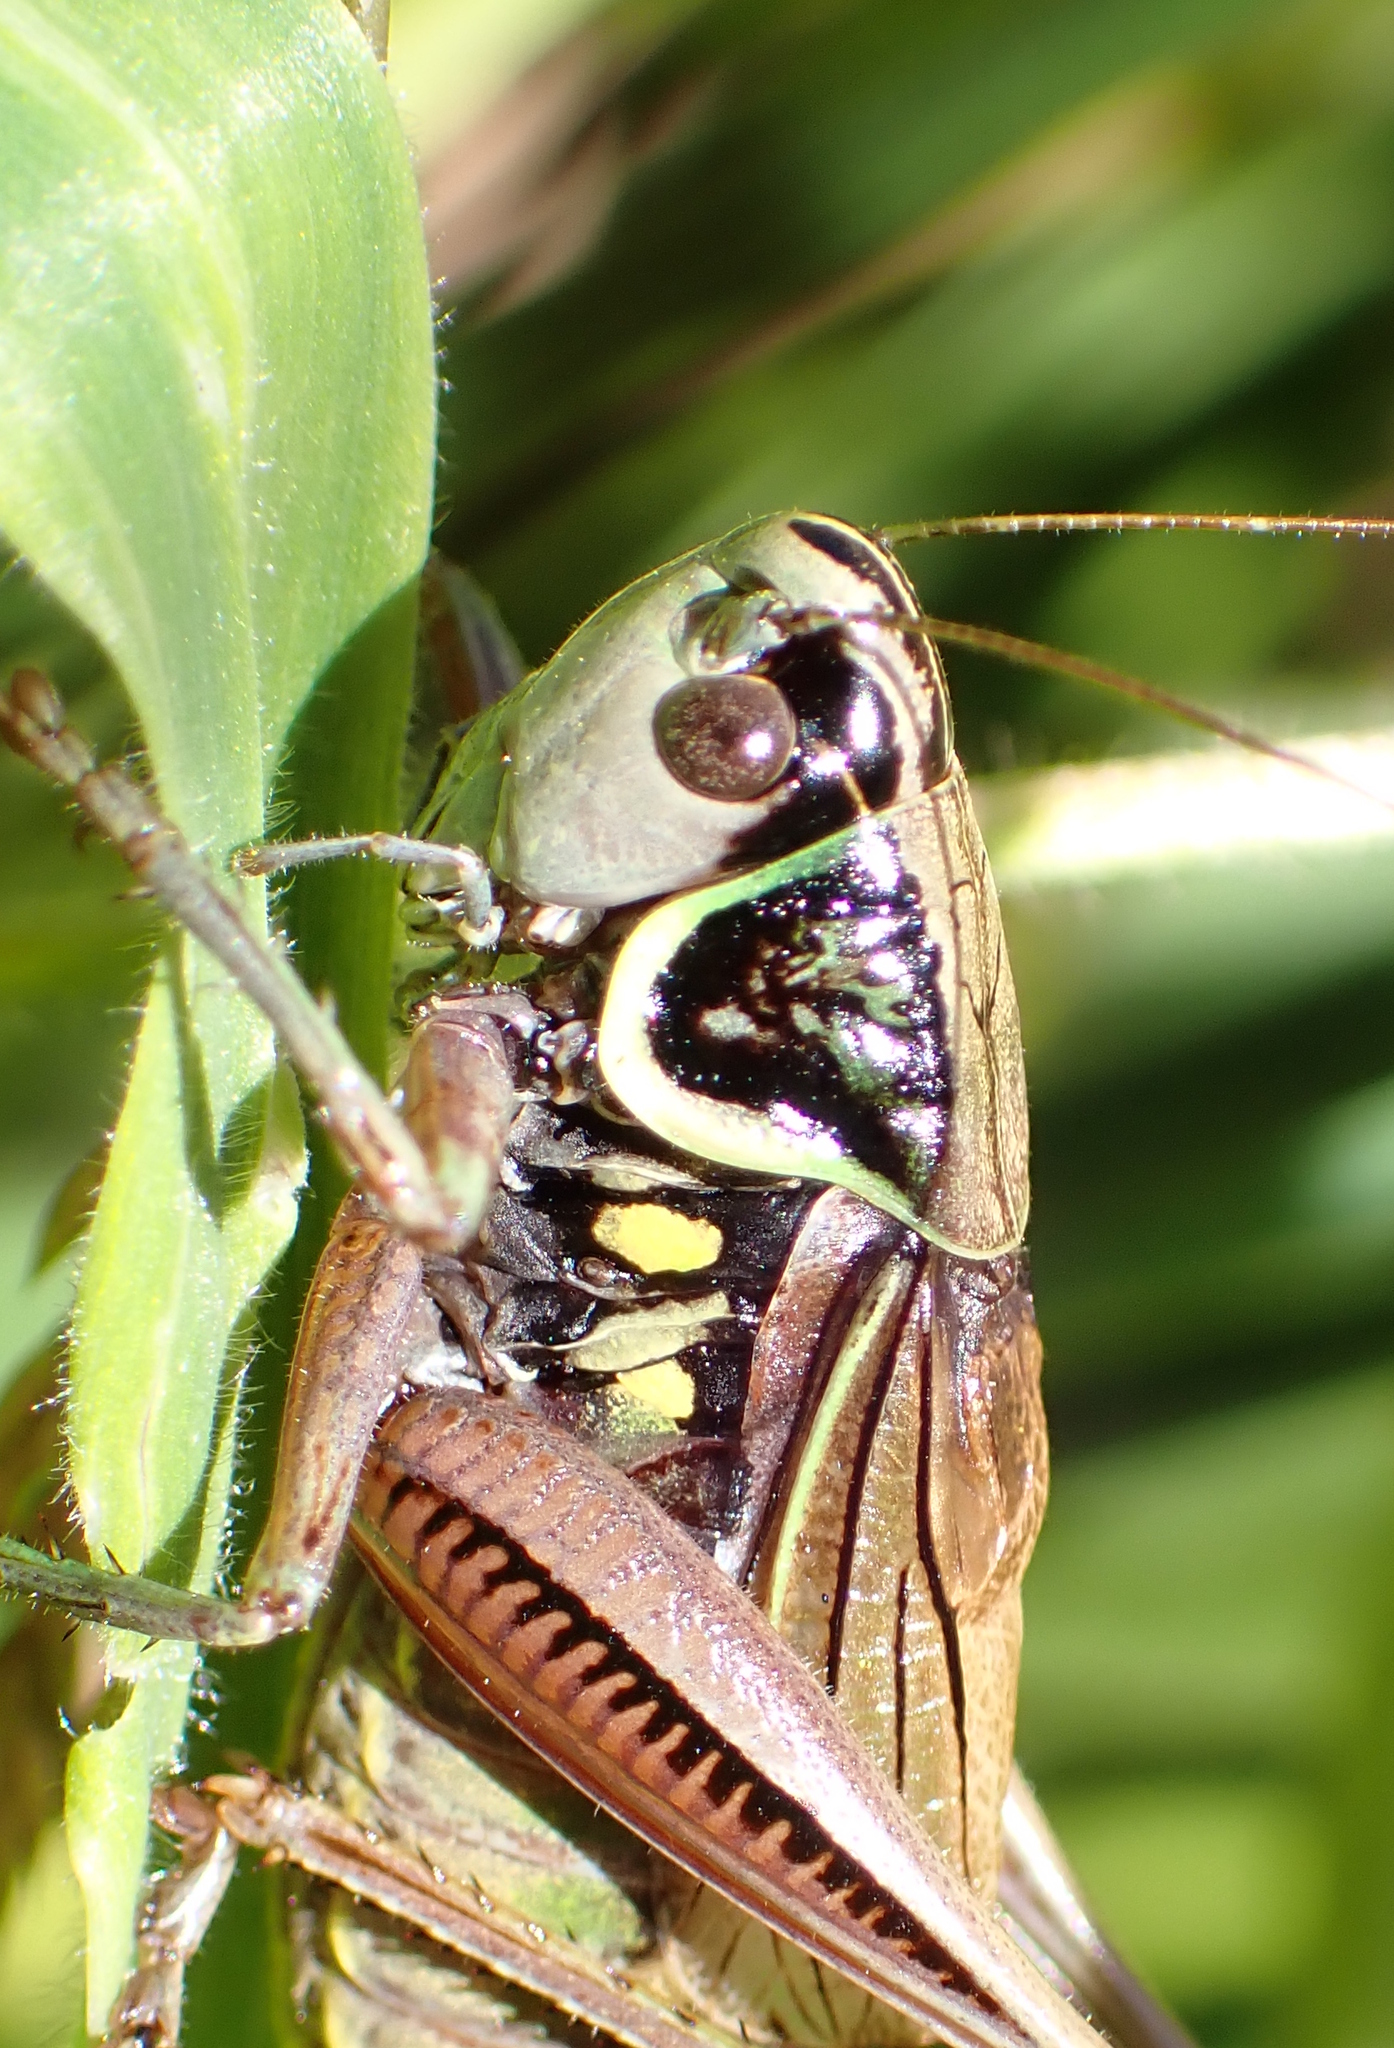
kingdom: Animalia
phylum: Arthropoda
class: Insecta
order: Orthoptera
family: Tettigoniidae
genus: Roeseliana
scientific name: Roeseliana roeselii
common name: Roesel's bush cricket
